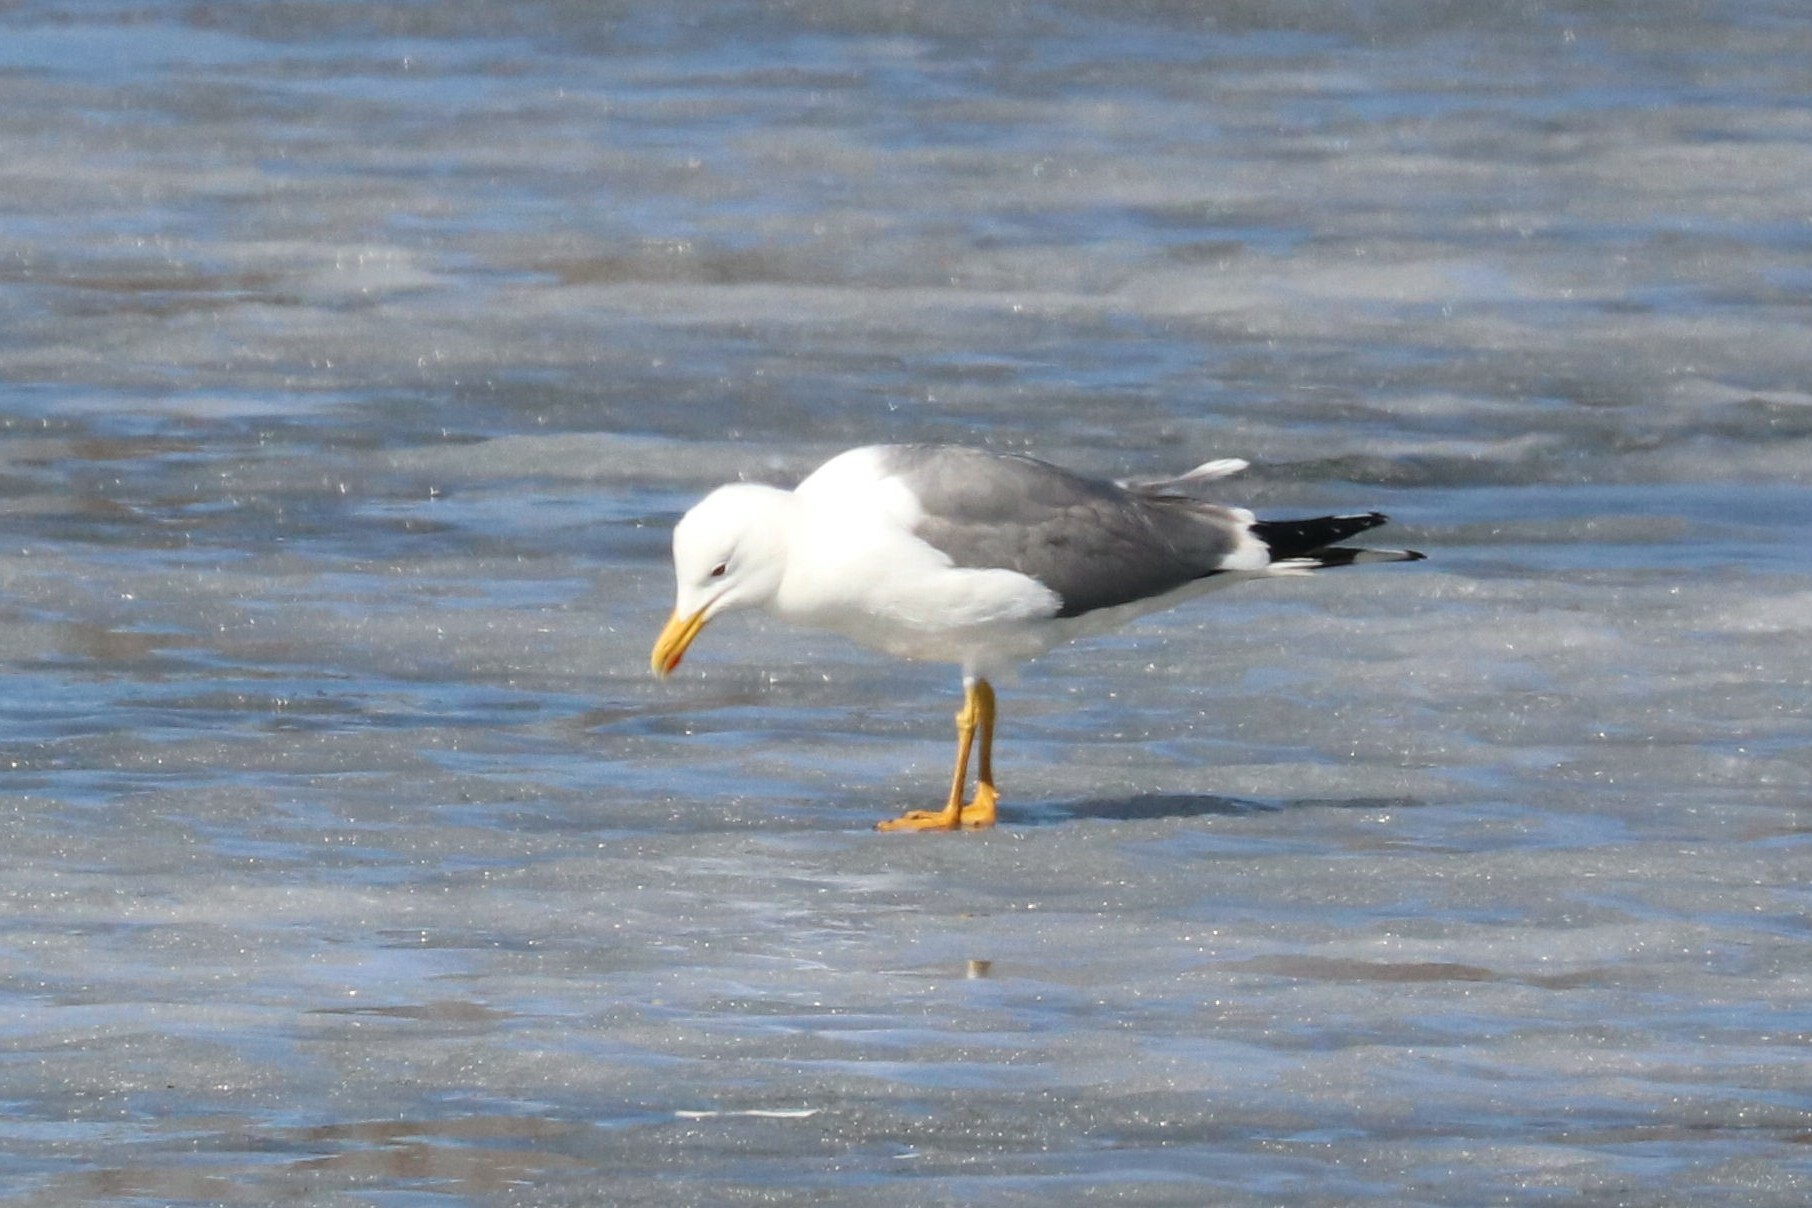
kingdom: Animalia
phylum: Chordata
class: Aves
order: Charadriiformes
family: Laridae
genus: Larus
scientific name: Larus fuscus
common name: Lesser black-backed gull
